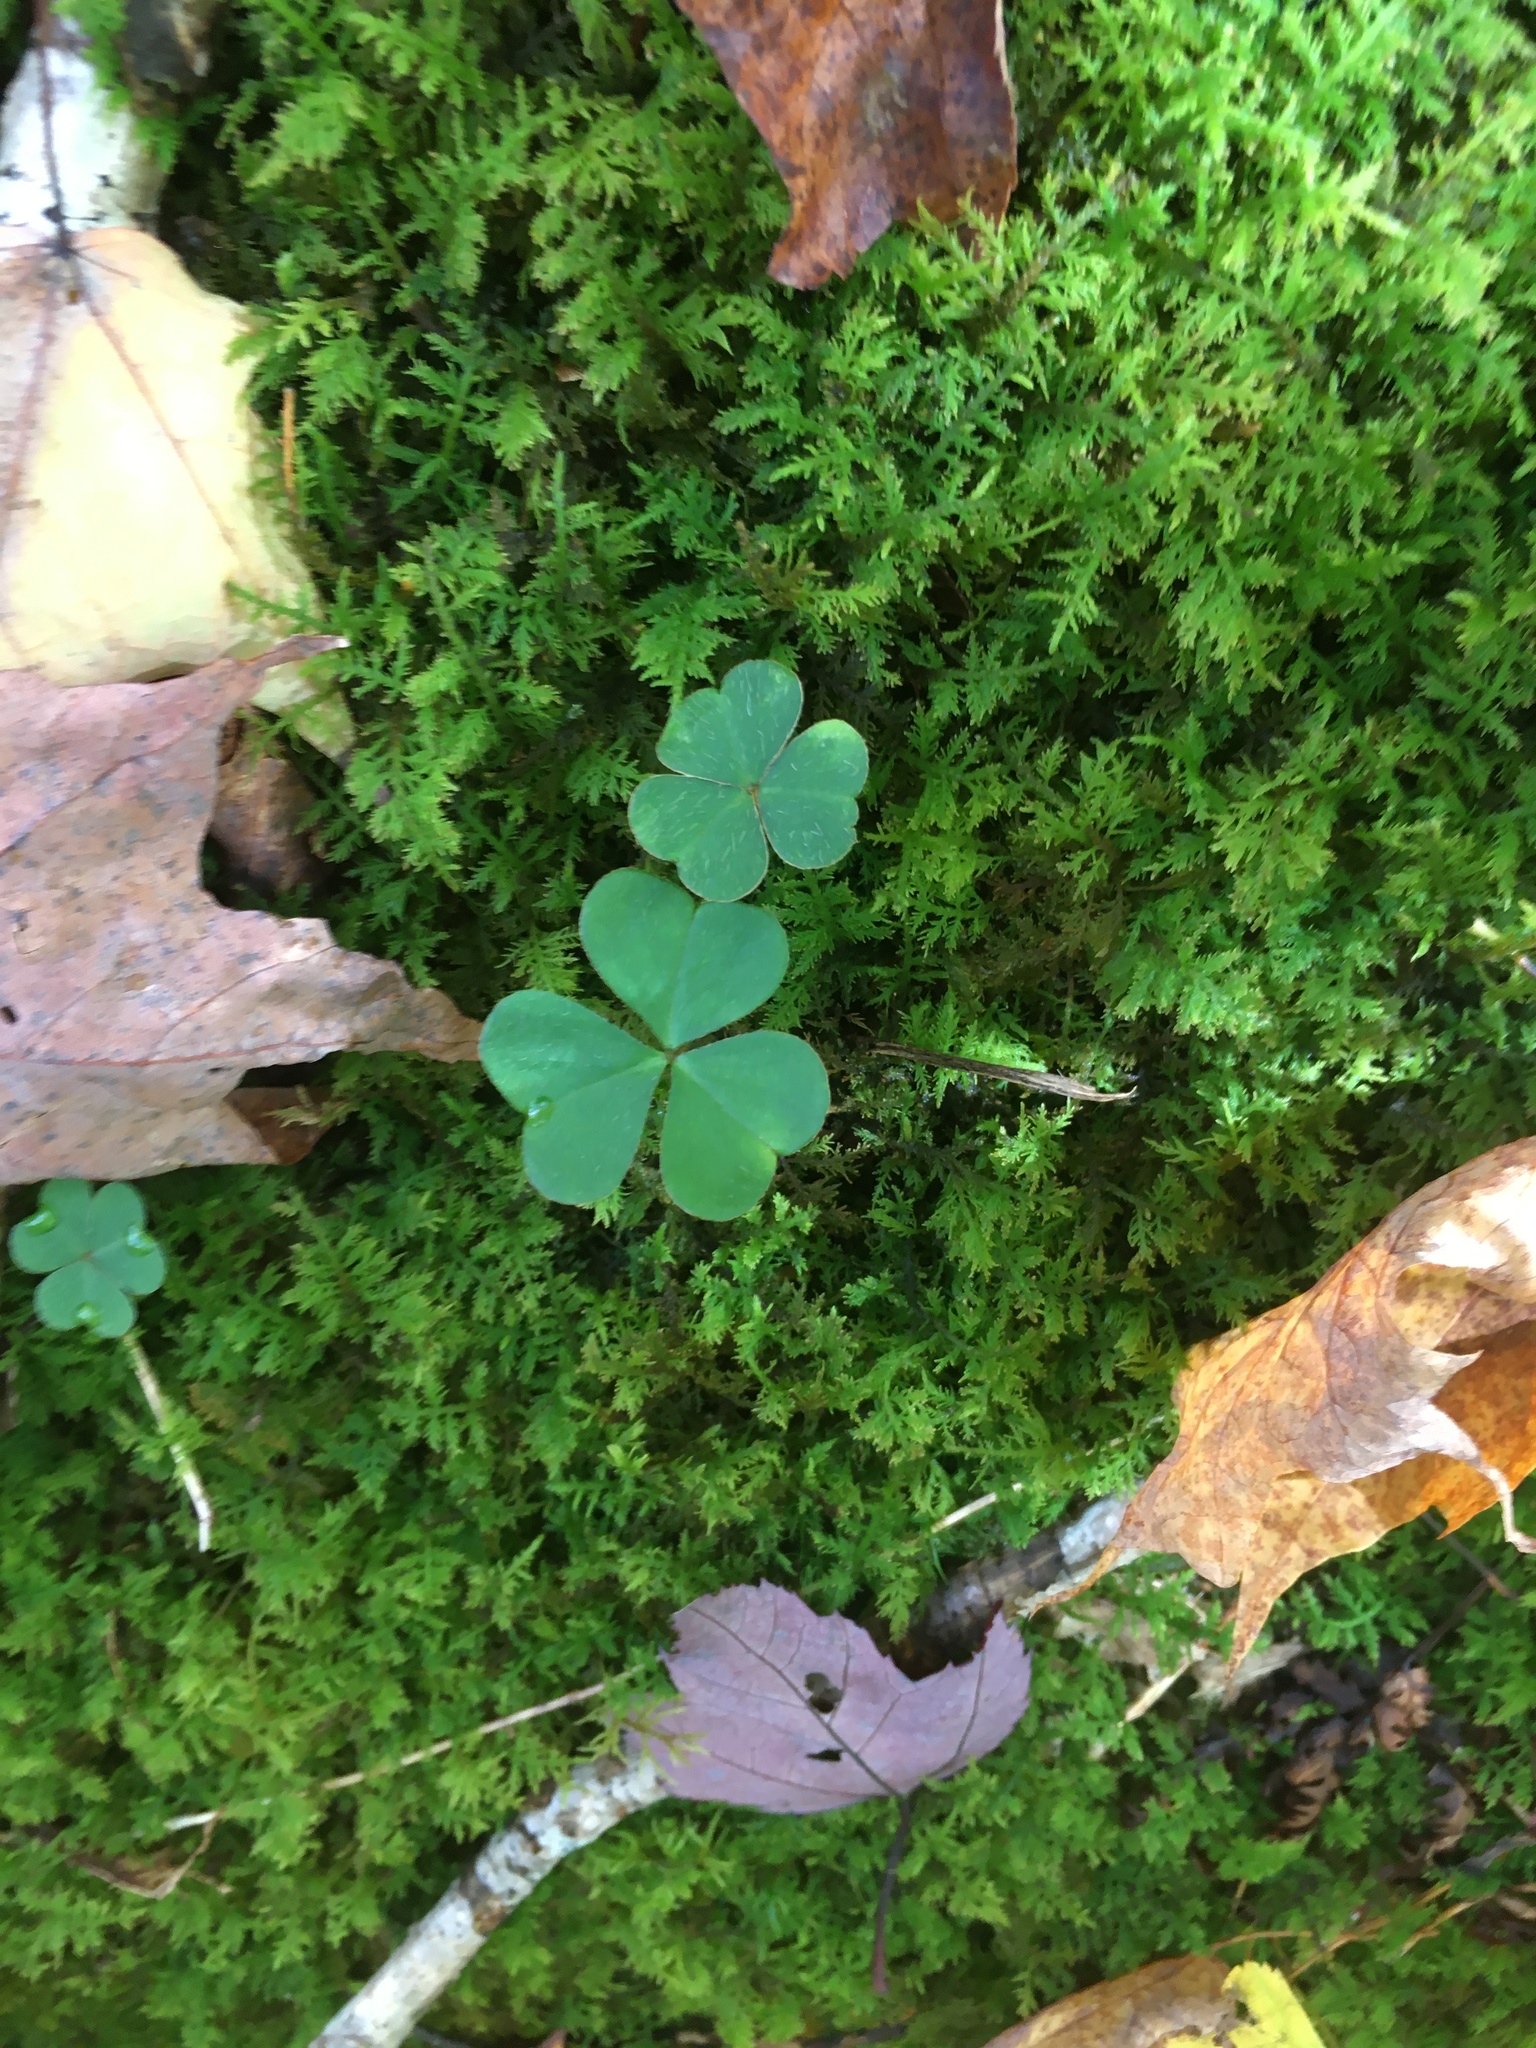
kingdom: Plantae
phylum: Tracheophyta
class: Magnoliopsida
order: Oxalidales
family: Oxalidaceae
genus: Oxalis
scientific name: Oxalis montana
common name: American wood-sorrel
